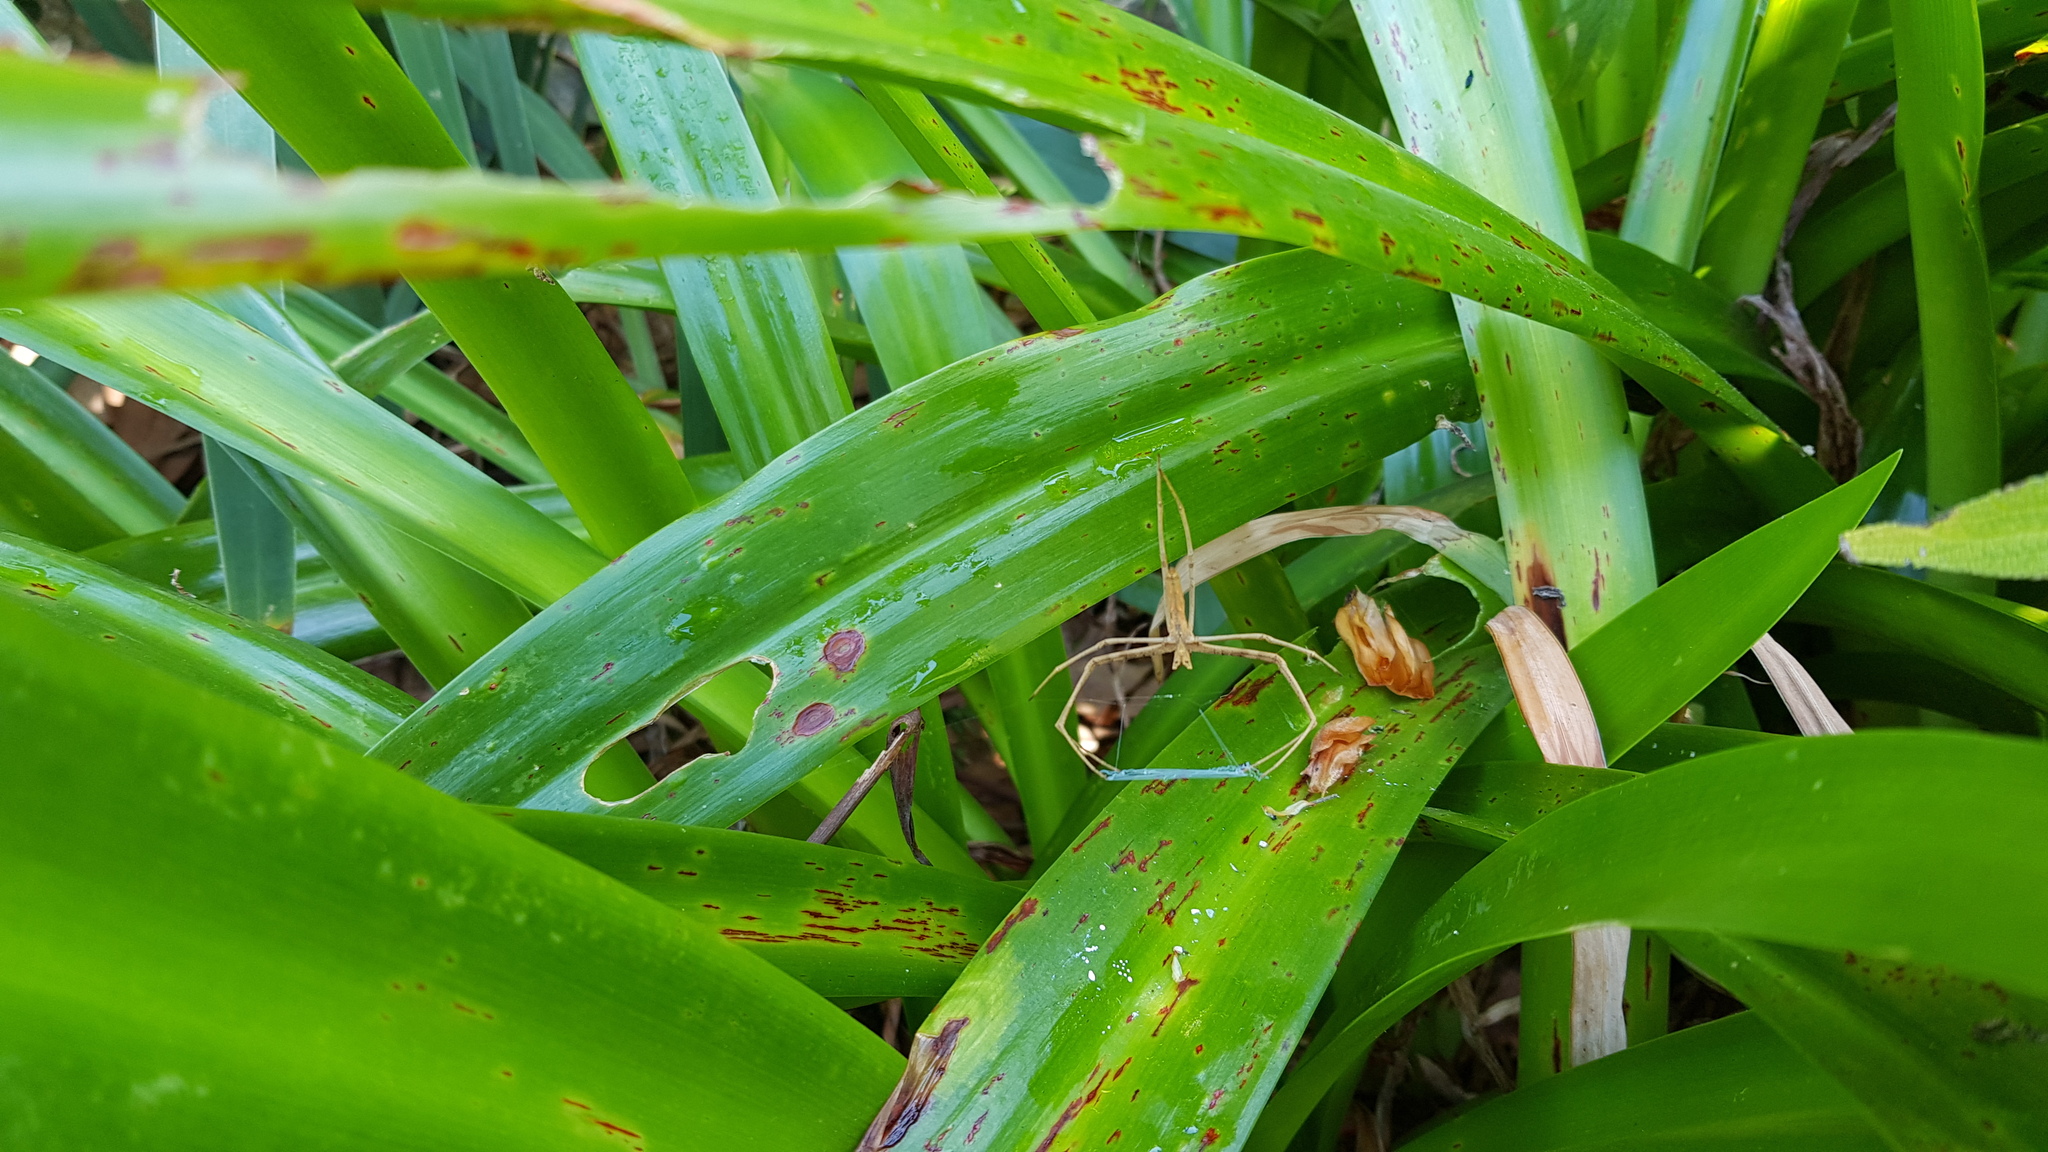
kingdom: Animalia
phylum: Arthropoda
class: Arachnida
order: Araneae
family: Deinopidae
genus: Deinopis
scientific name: Deinopis subrufa
